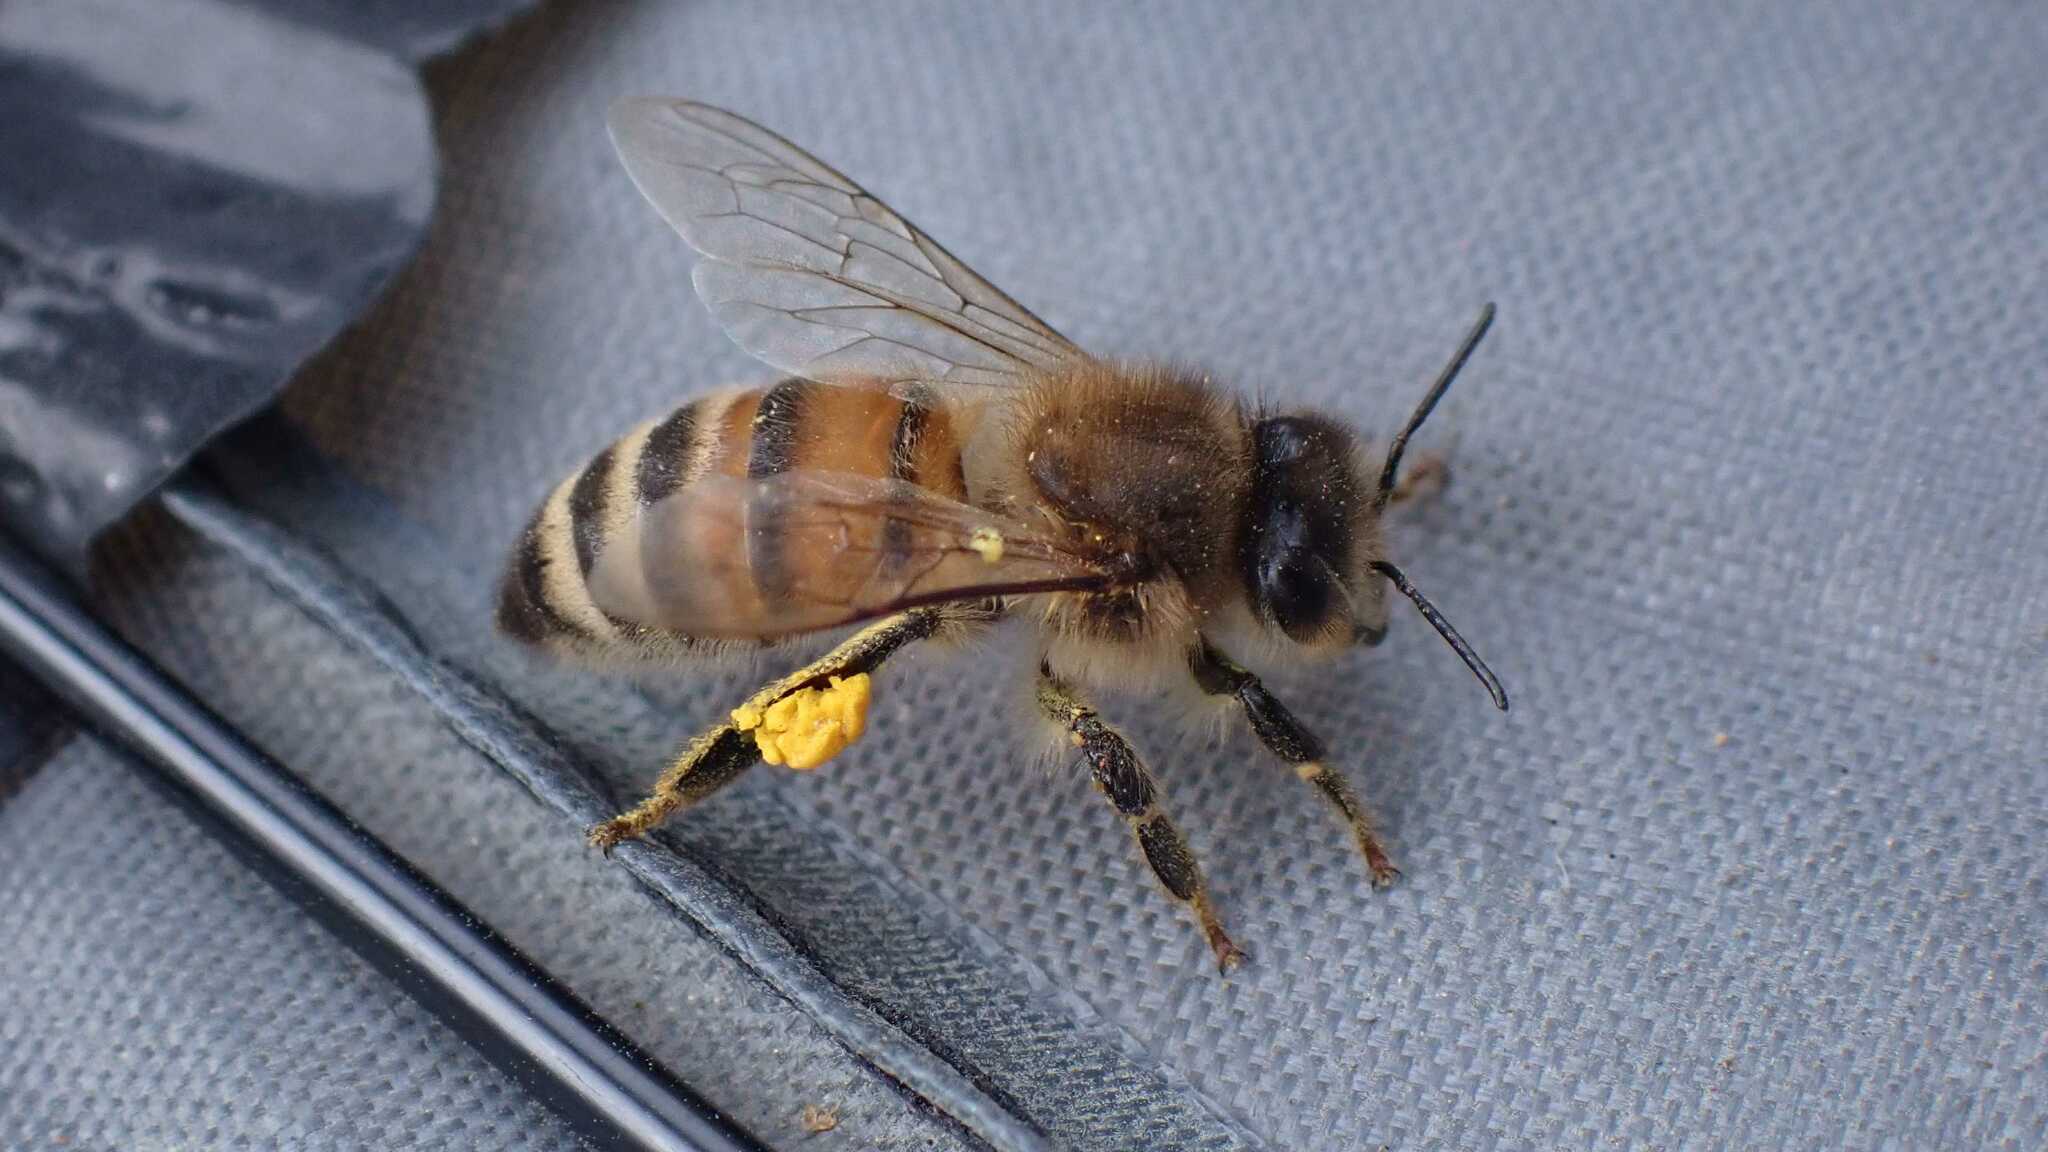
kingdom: Animalia
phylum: Arthropoda
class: Insecta
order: Hymenoptera
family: Apidae
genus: Apis
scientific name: Apis mellifera
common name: Honey bee
